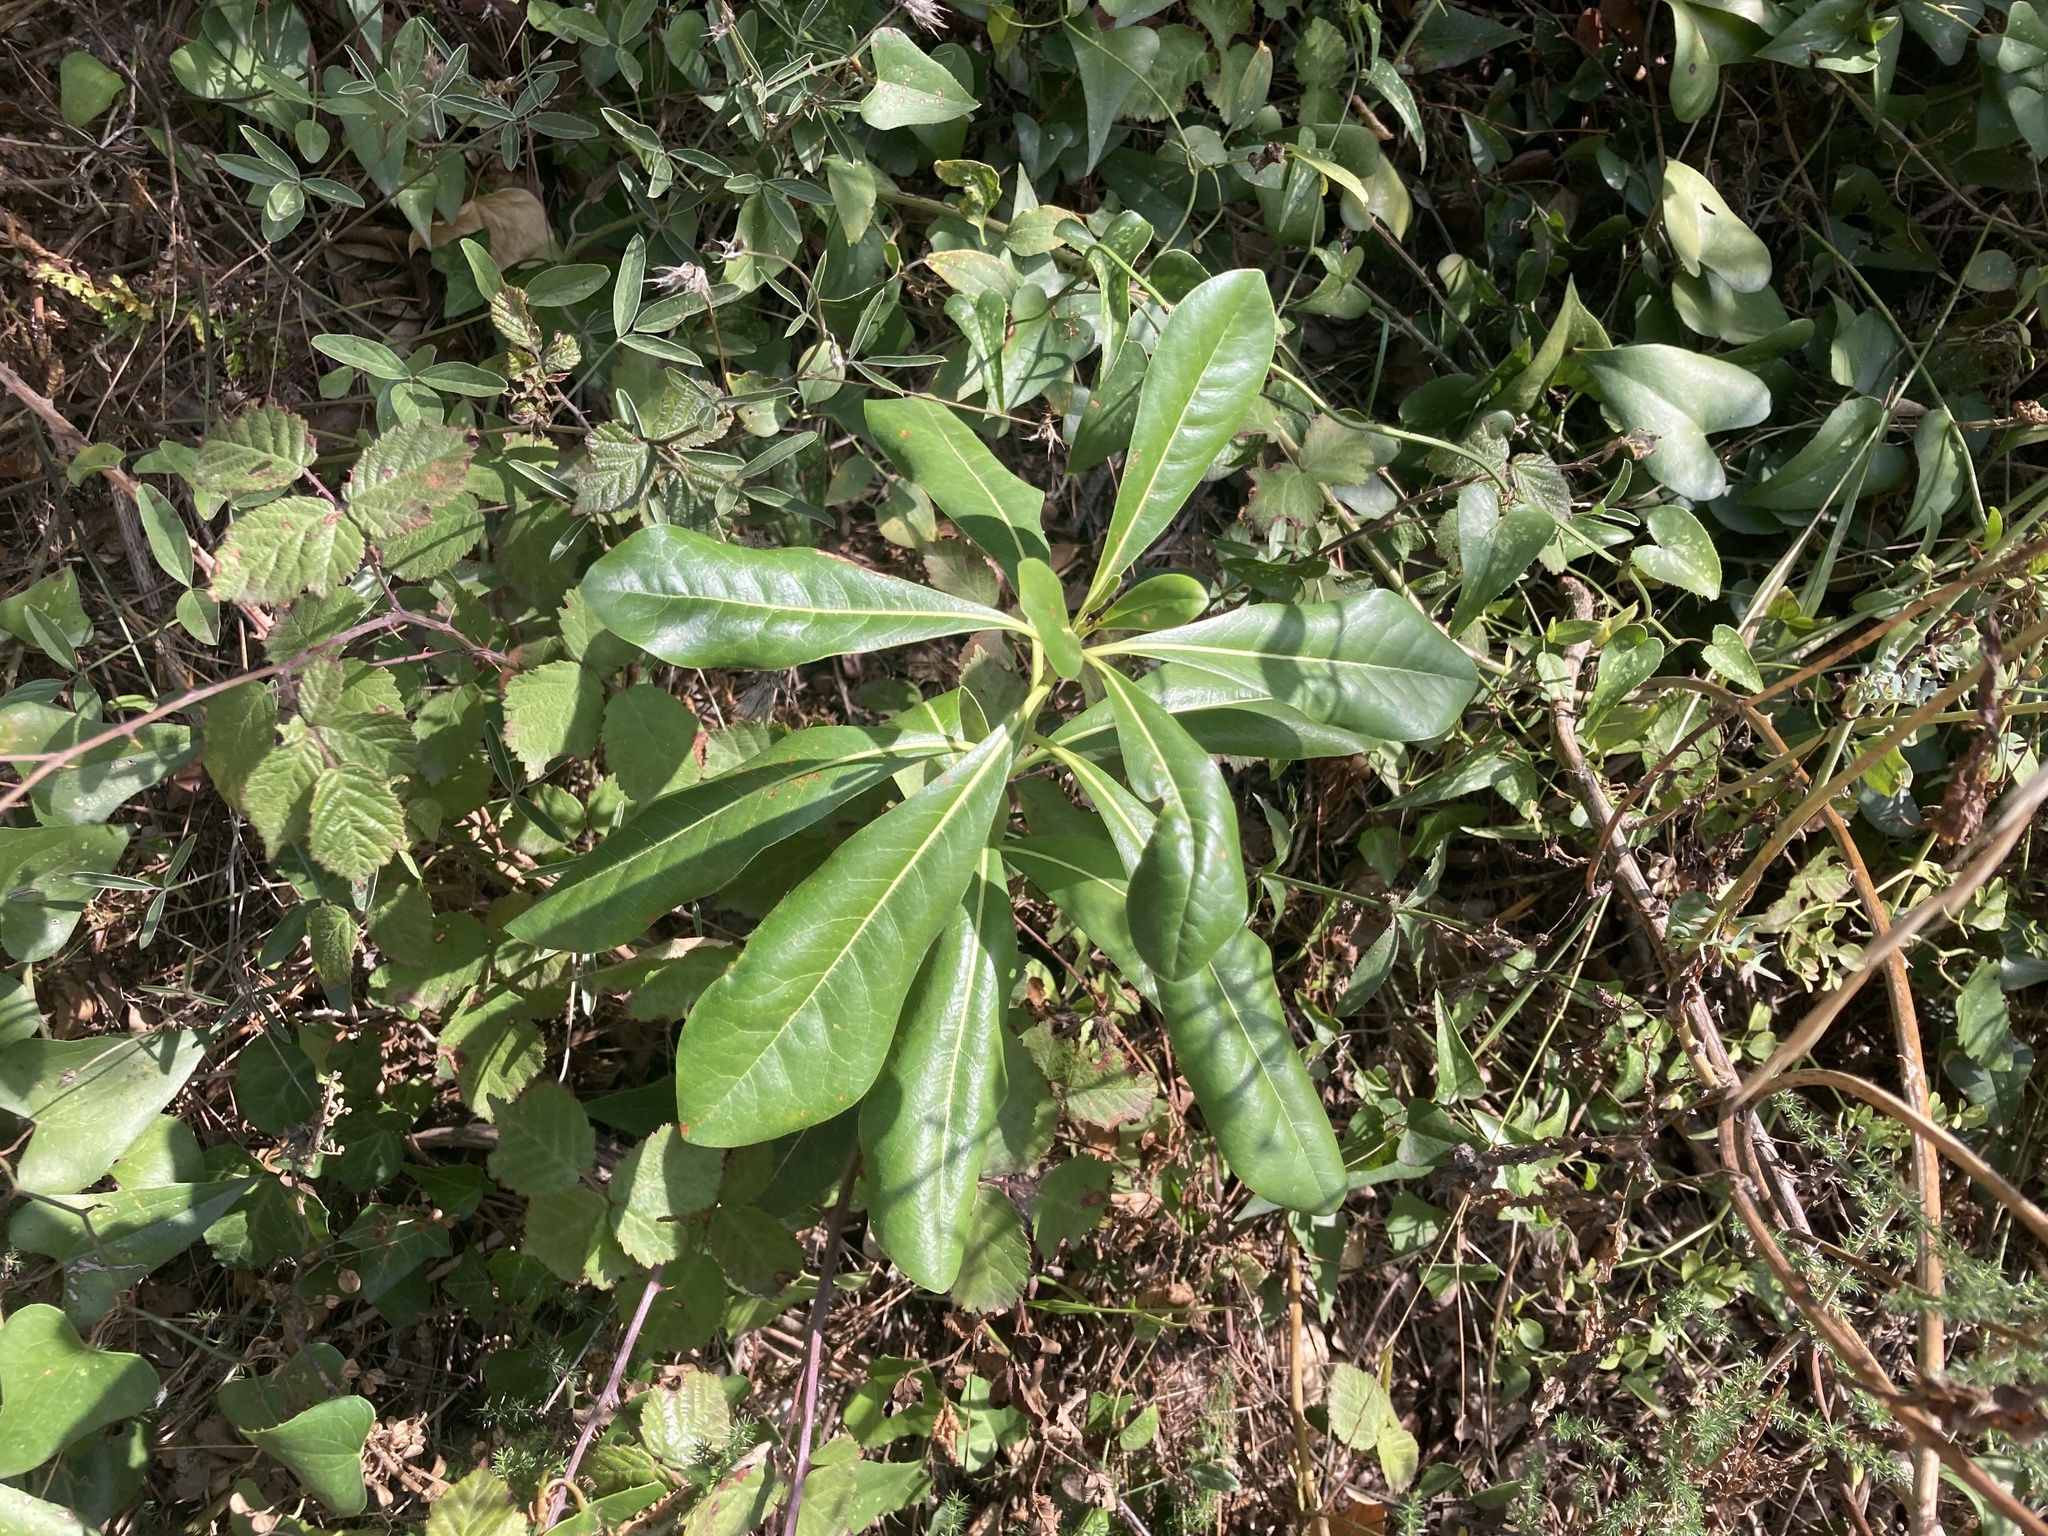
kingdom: Plantae
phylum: Tracheophyta
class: Magnoliopsida
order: Apiales
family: Pittosporaceae
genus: Pittosporum
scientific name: Pittosporum tobira
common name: Japanese cheesewood
